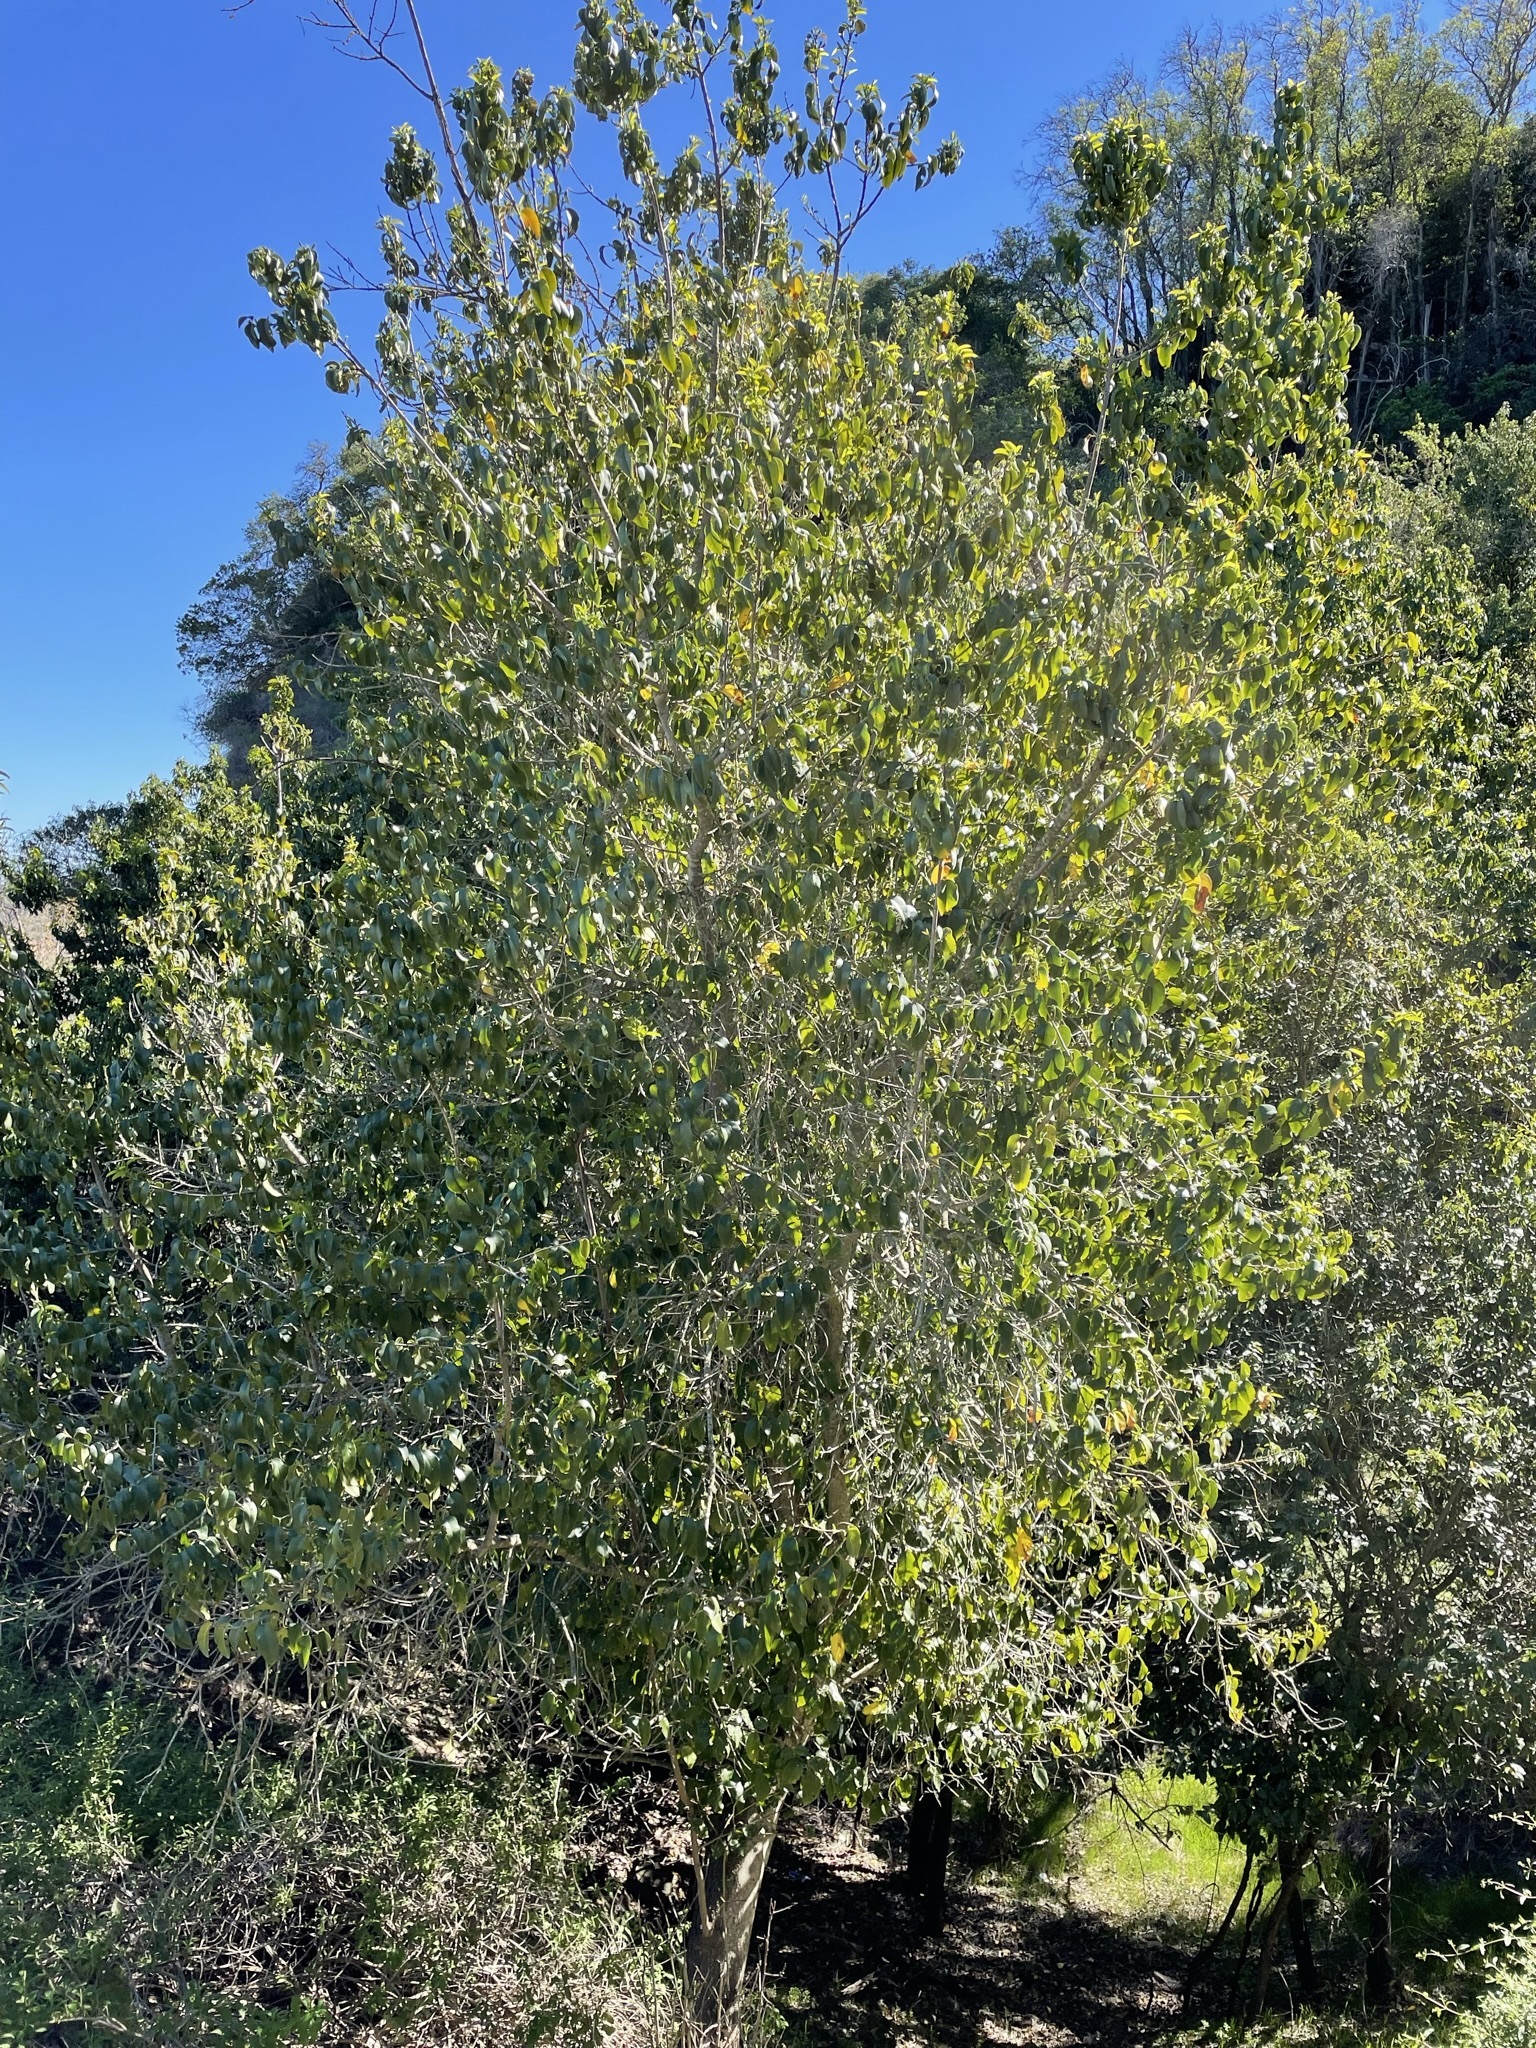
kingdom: Plantae
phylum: Tracheophyta
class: Magnoliopsida
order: Rosales
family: Rosaceae
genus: Prunus
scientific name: Prunus ilicifolia
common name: Hollyleaf cherry
